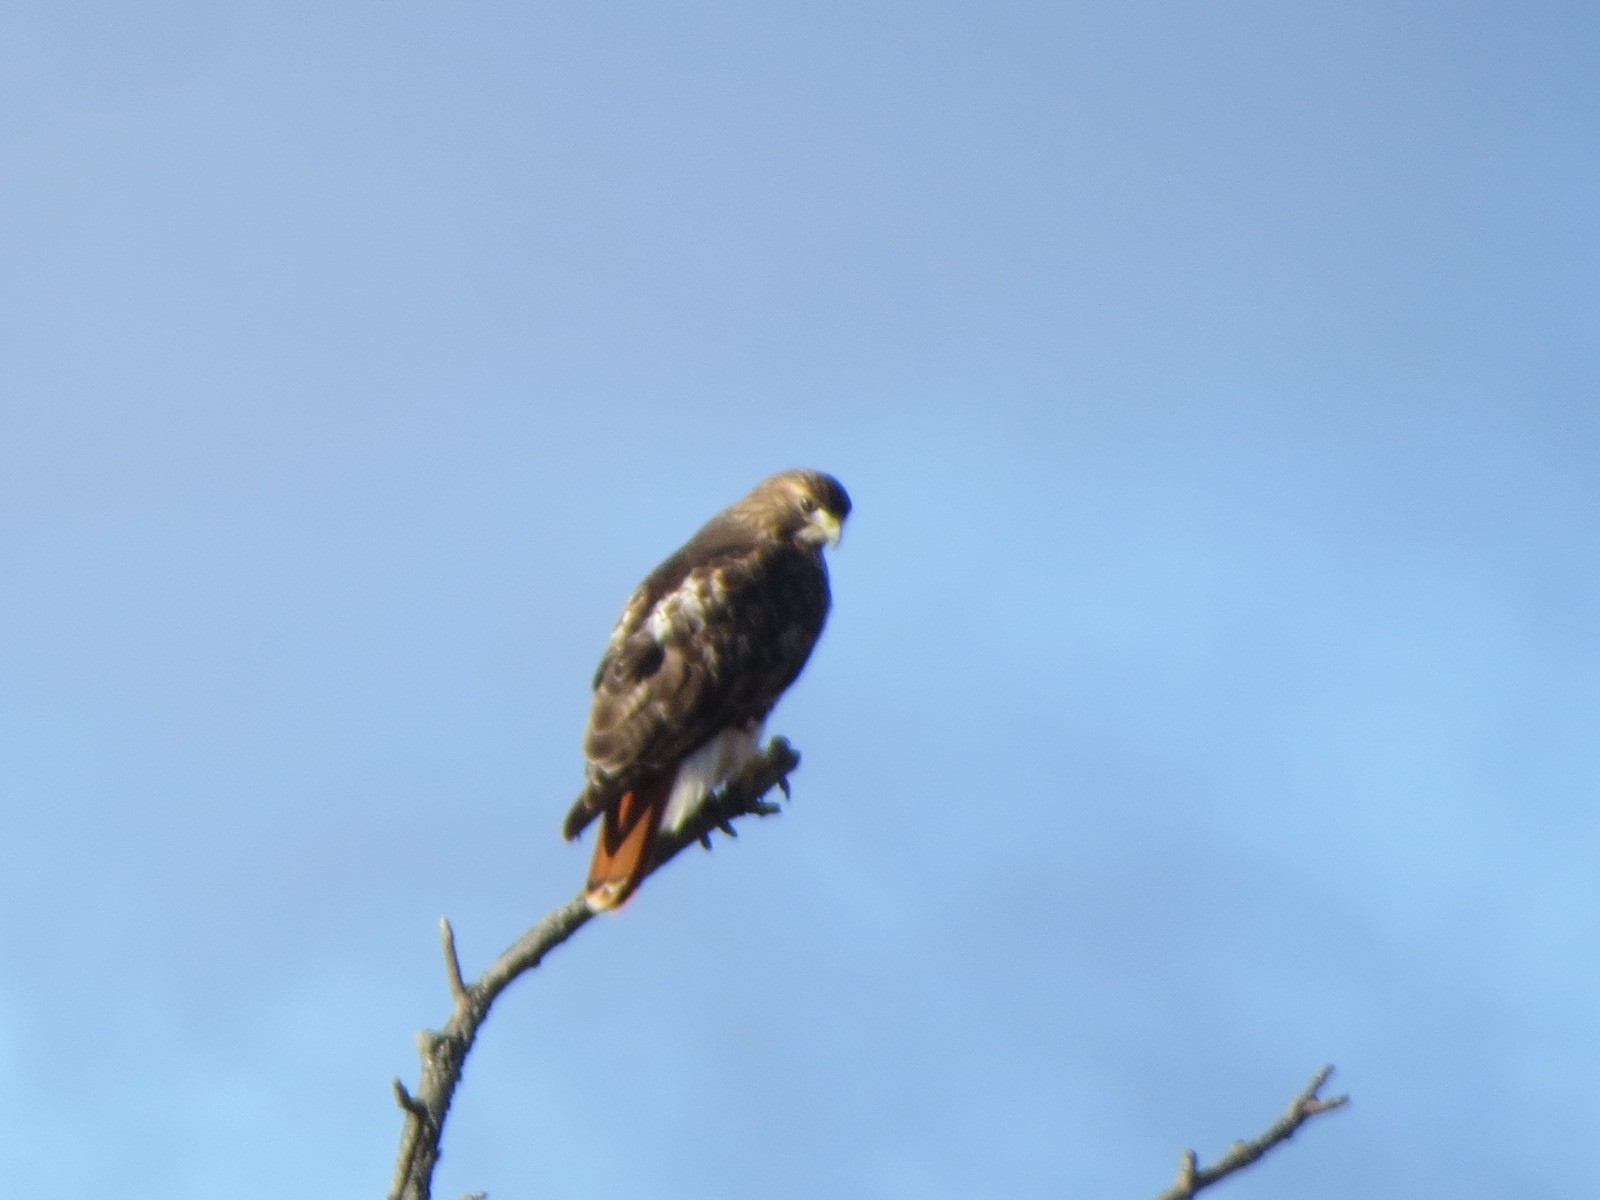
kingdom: Animalia
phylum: Chordata
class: Aves
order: Accipitriformes
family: Accipitridae
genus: Buteo
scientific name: Buteo jamaicensis
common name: Red-tailed hawk
